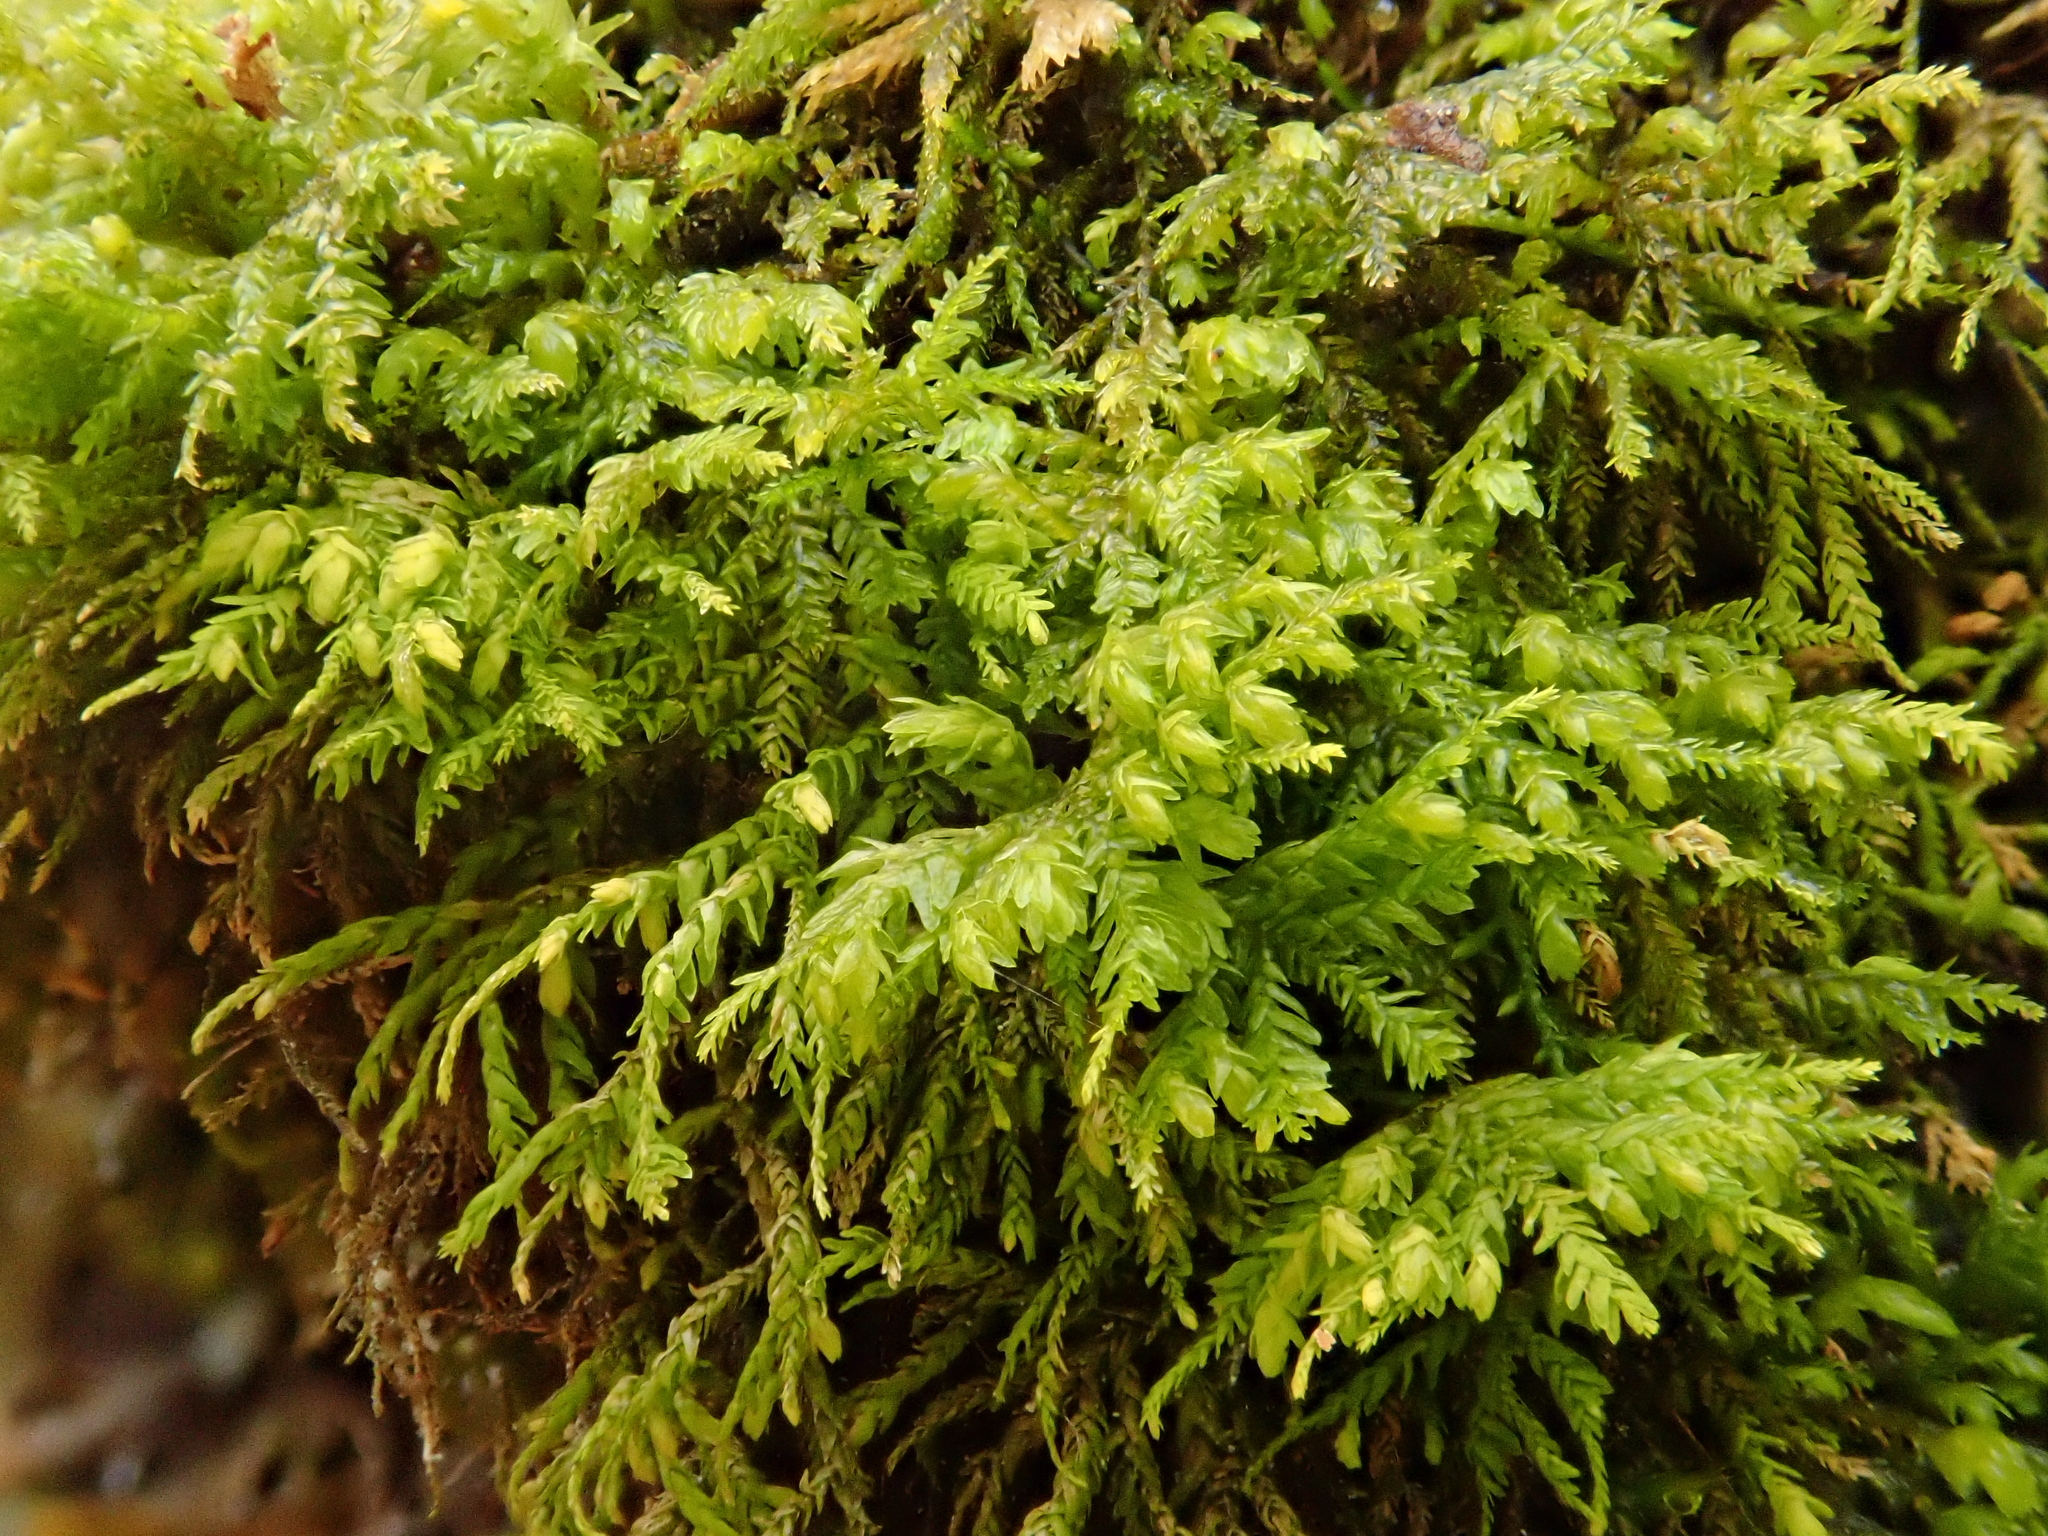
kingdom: Plantae
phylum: Bryophyta
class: Bryopsida
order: Hypnales
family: Neckeraceae
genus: Pseudanomodon
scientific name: Pseudanomodon attenuatus
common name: Tree-skirt moss
